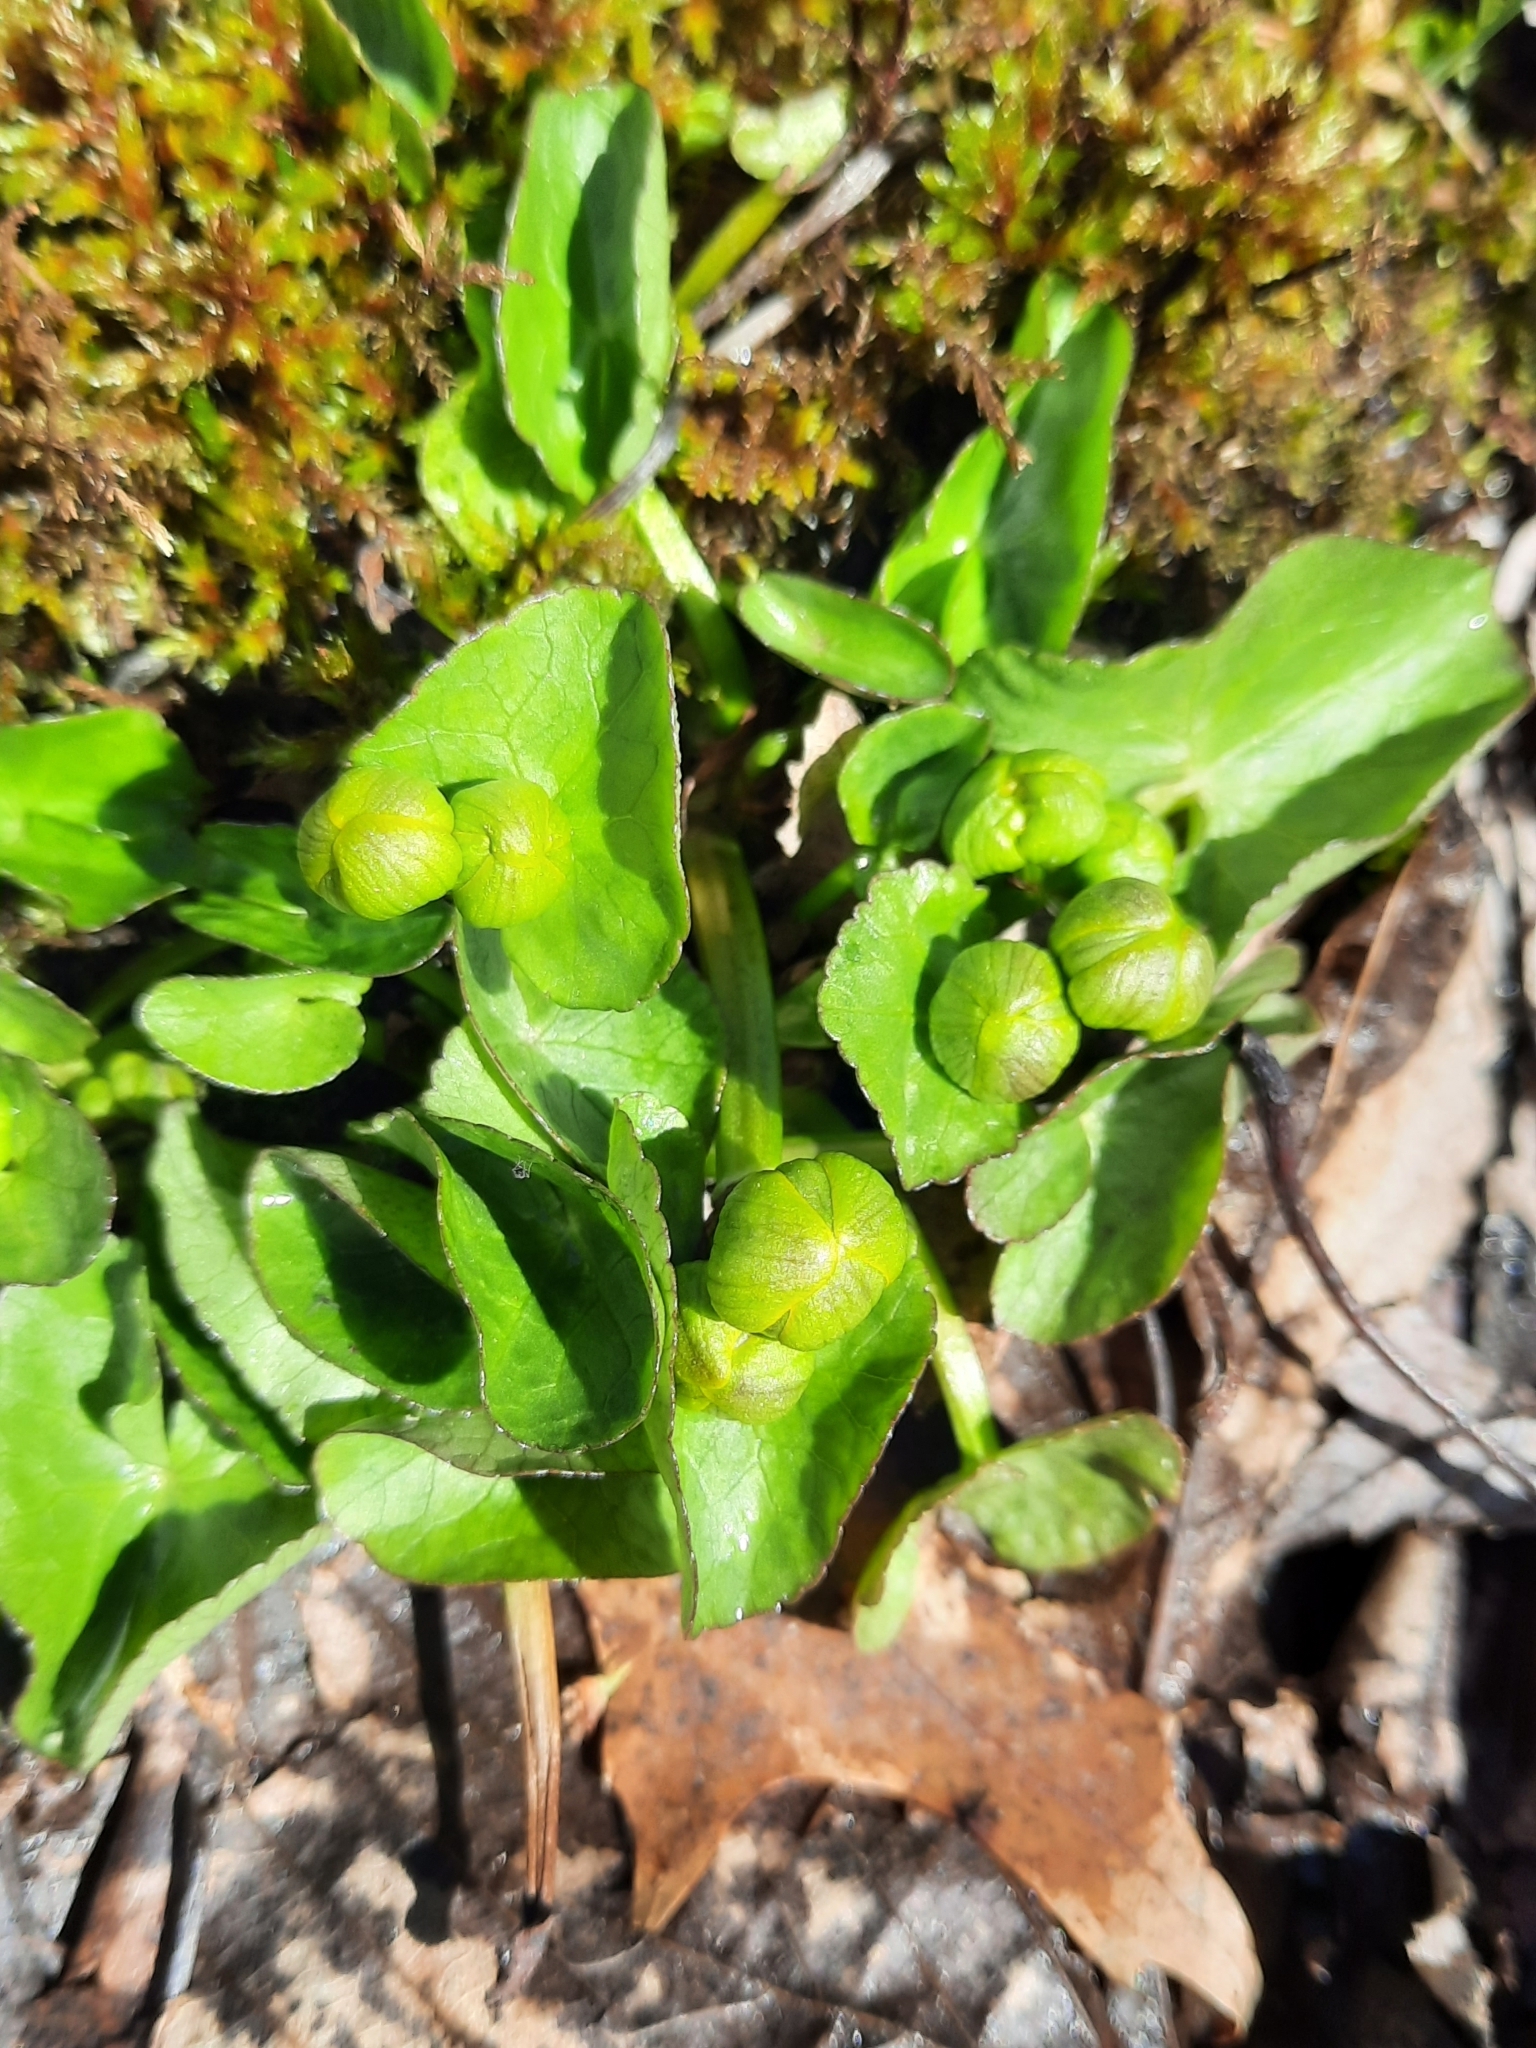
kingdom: Plantae
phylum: Tracheophyta
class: Magnoliopsida
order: Ranunculales
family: Ranunculaceae
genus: Caltha
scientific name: Caltha palustris
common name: Marsh marigold
